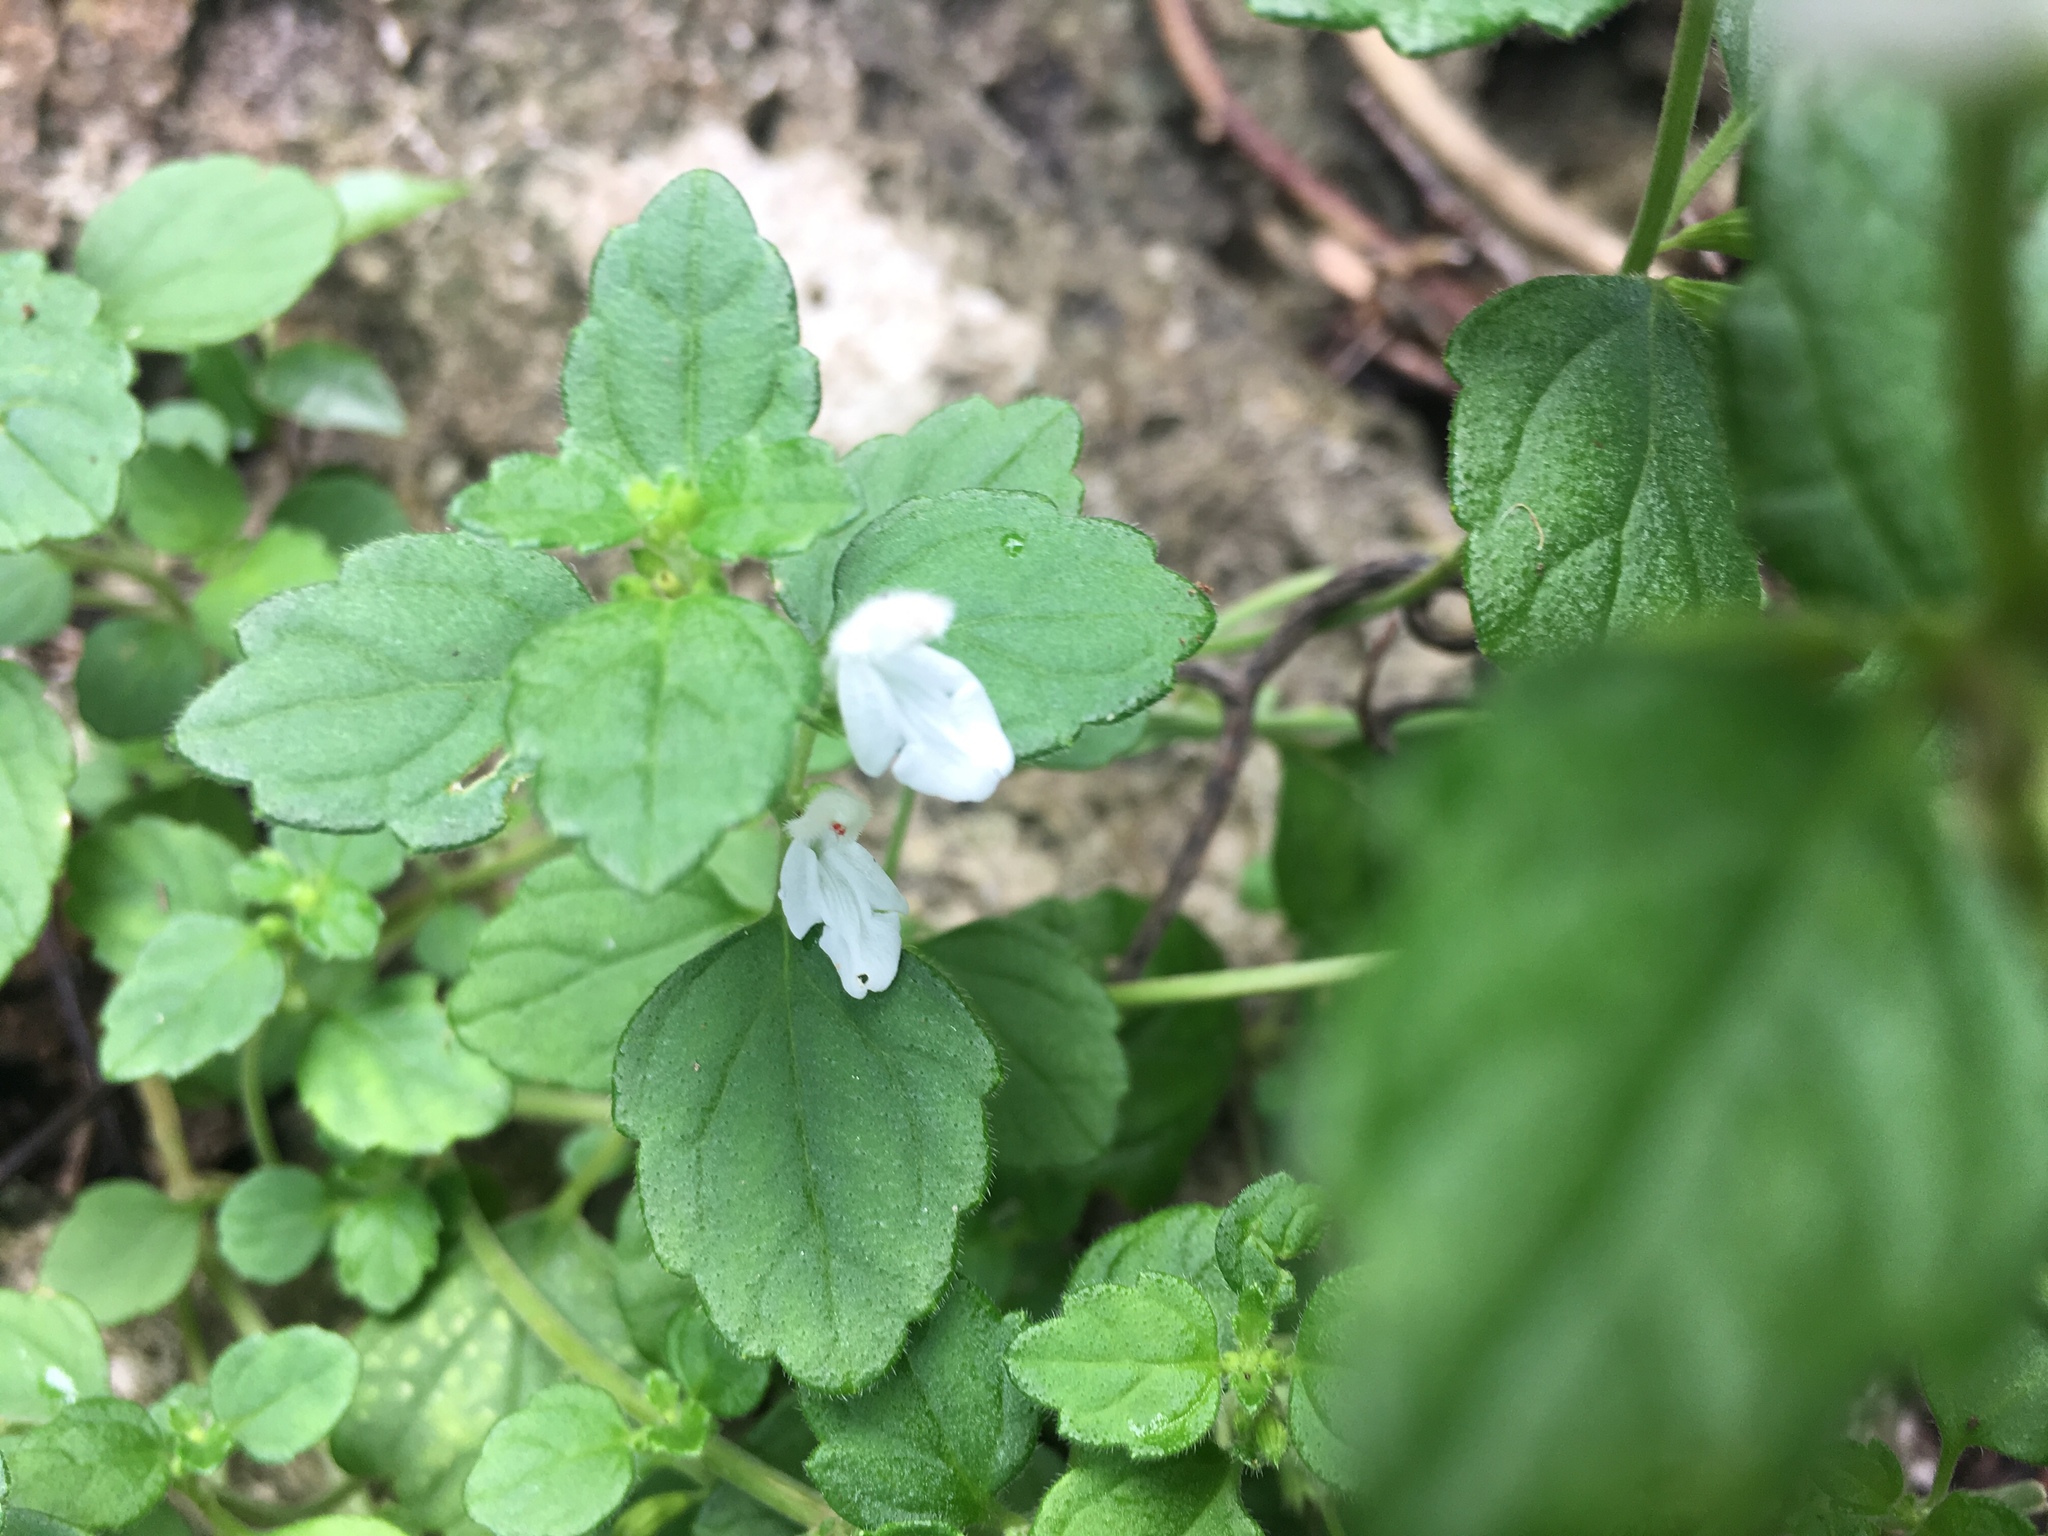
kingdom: Plantae
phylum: Tracheophyta
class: Magnoliopsida
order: Lamiales
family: Lamiaceae
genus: Leucas
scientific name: Leucas chinensis
